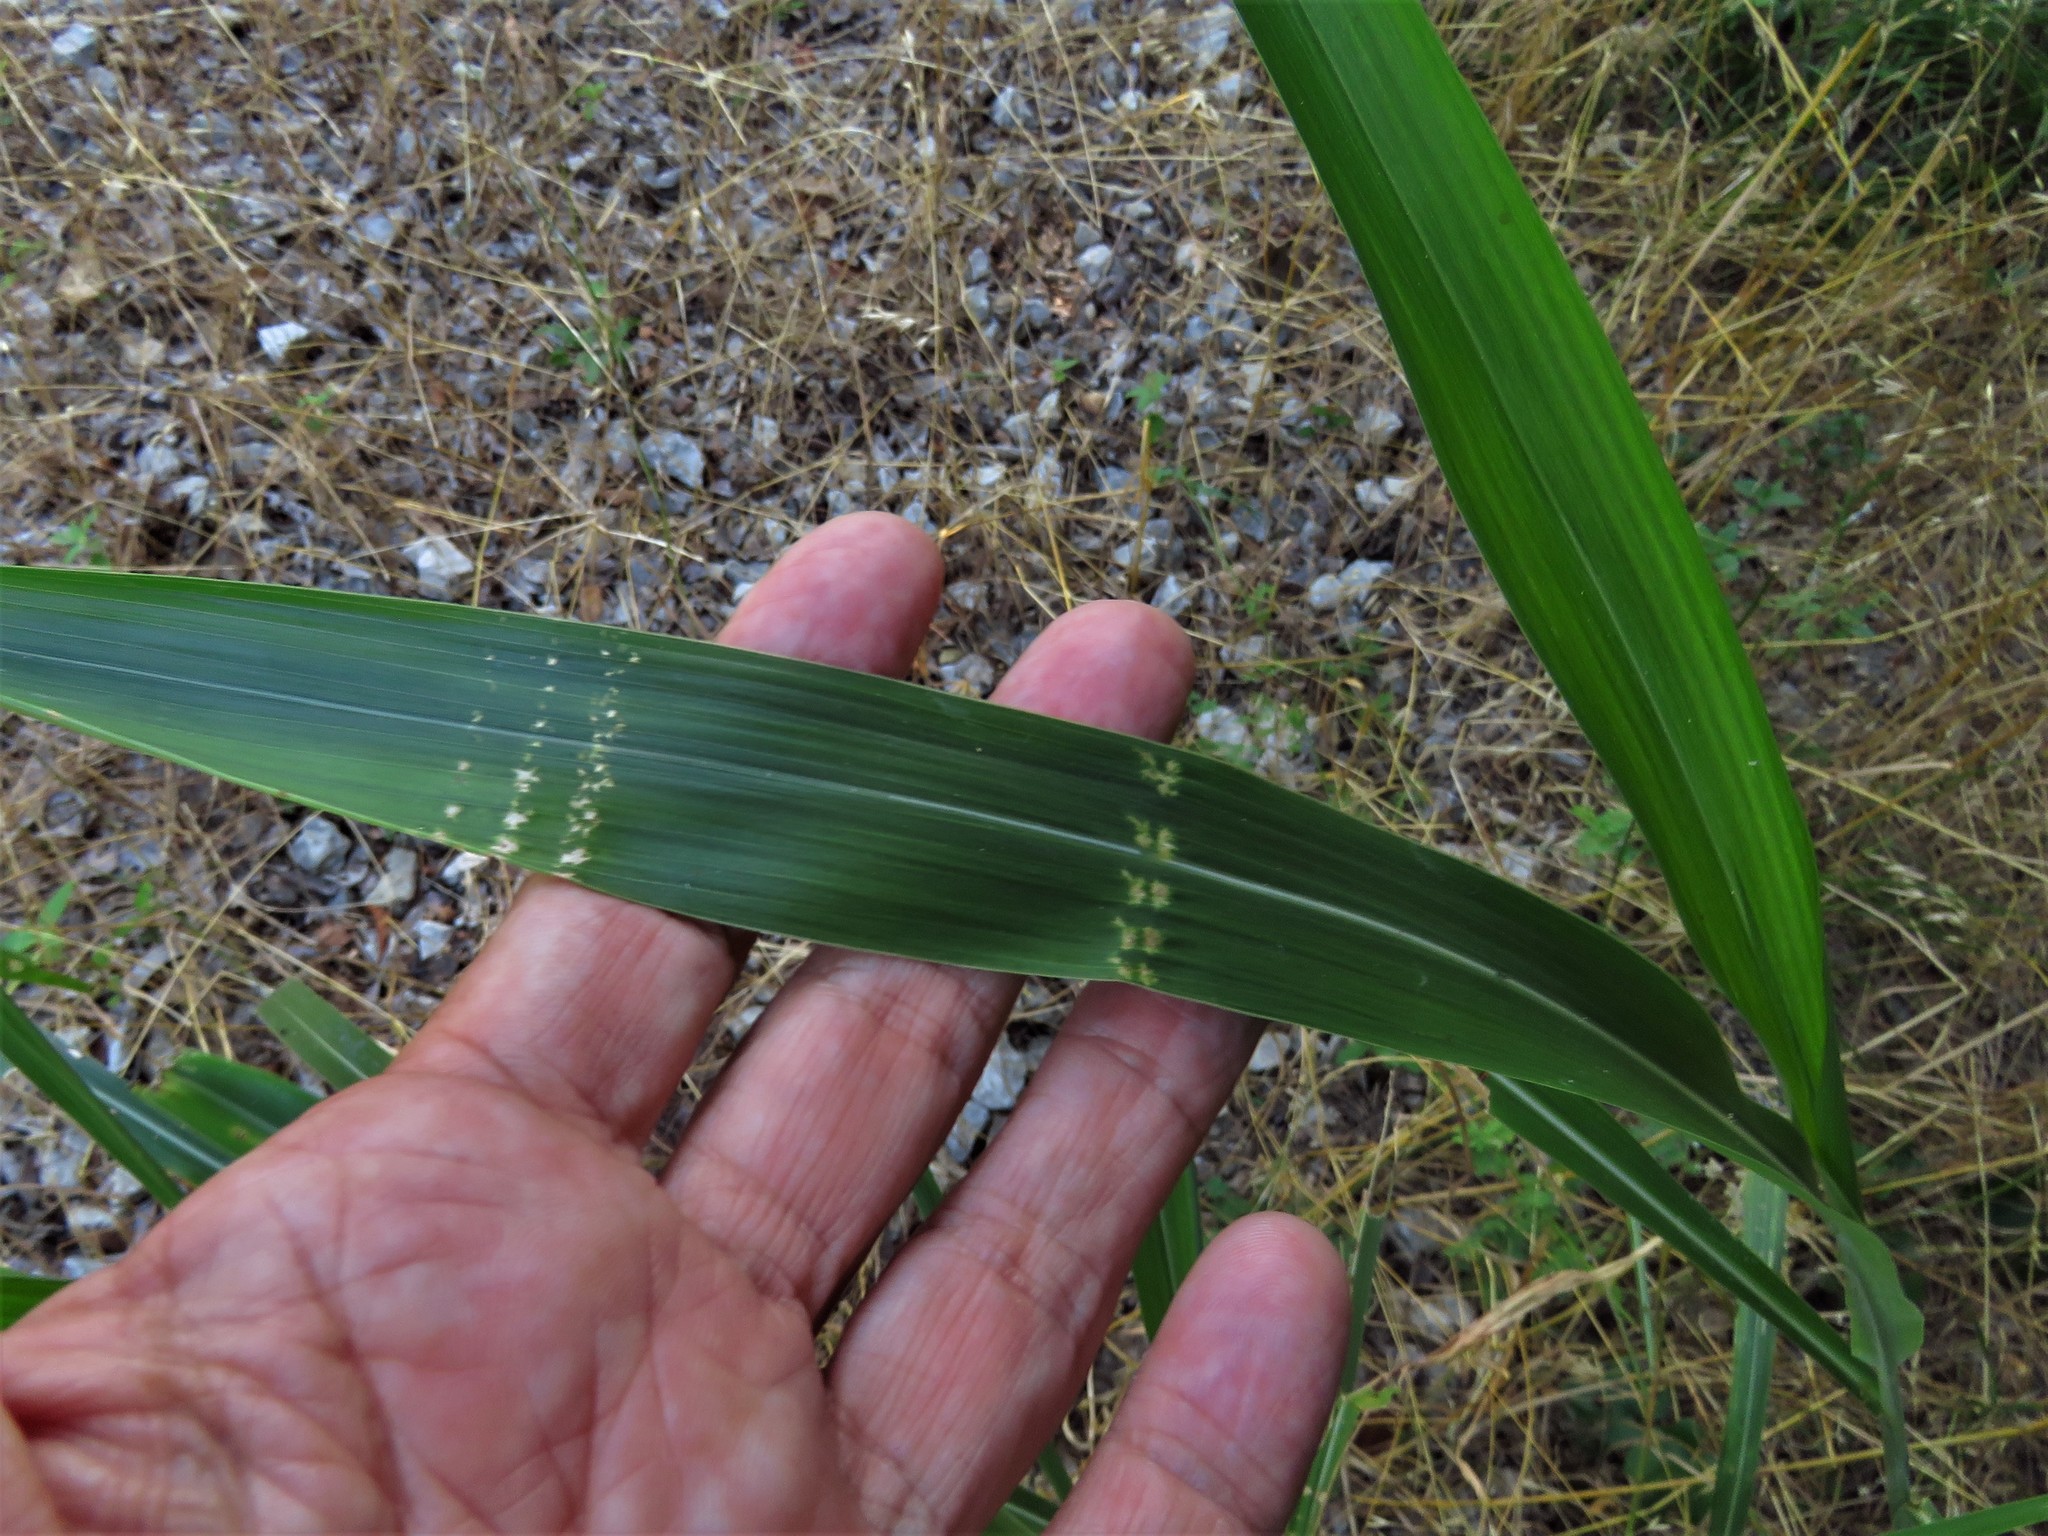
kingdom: Plantae
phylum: Tracheophyta
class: Liliopsida
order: Poales
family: Poaceae
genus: Sorghum
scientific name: Sorghum halepense
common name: Johnson-grass
